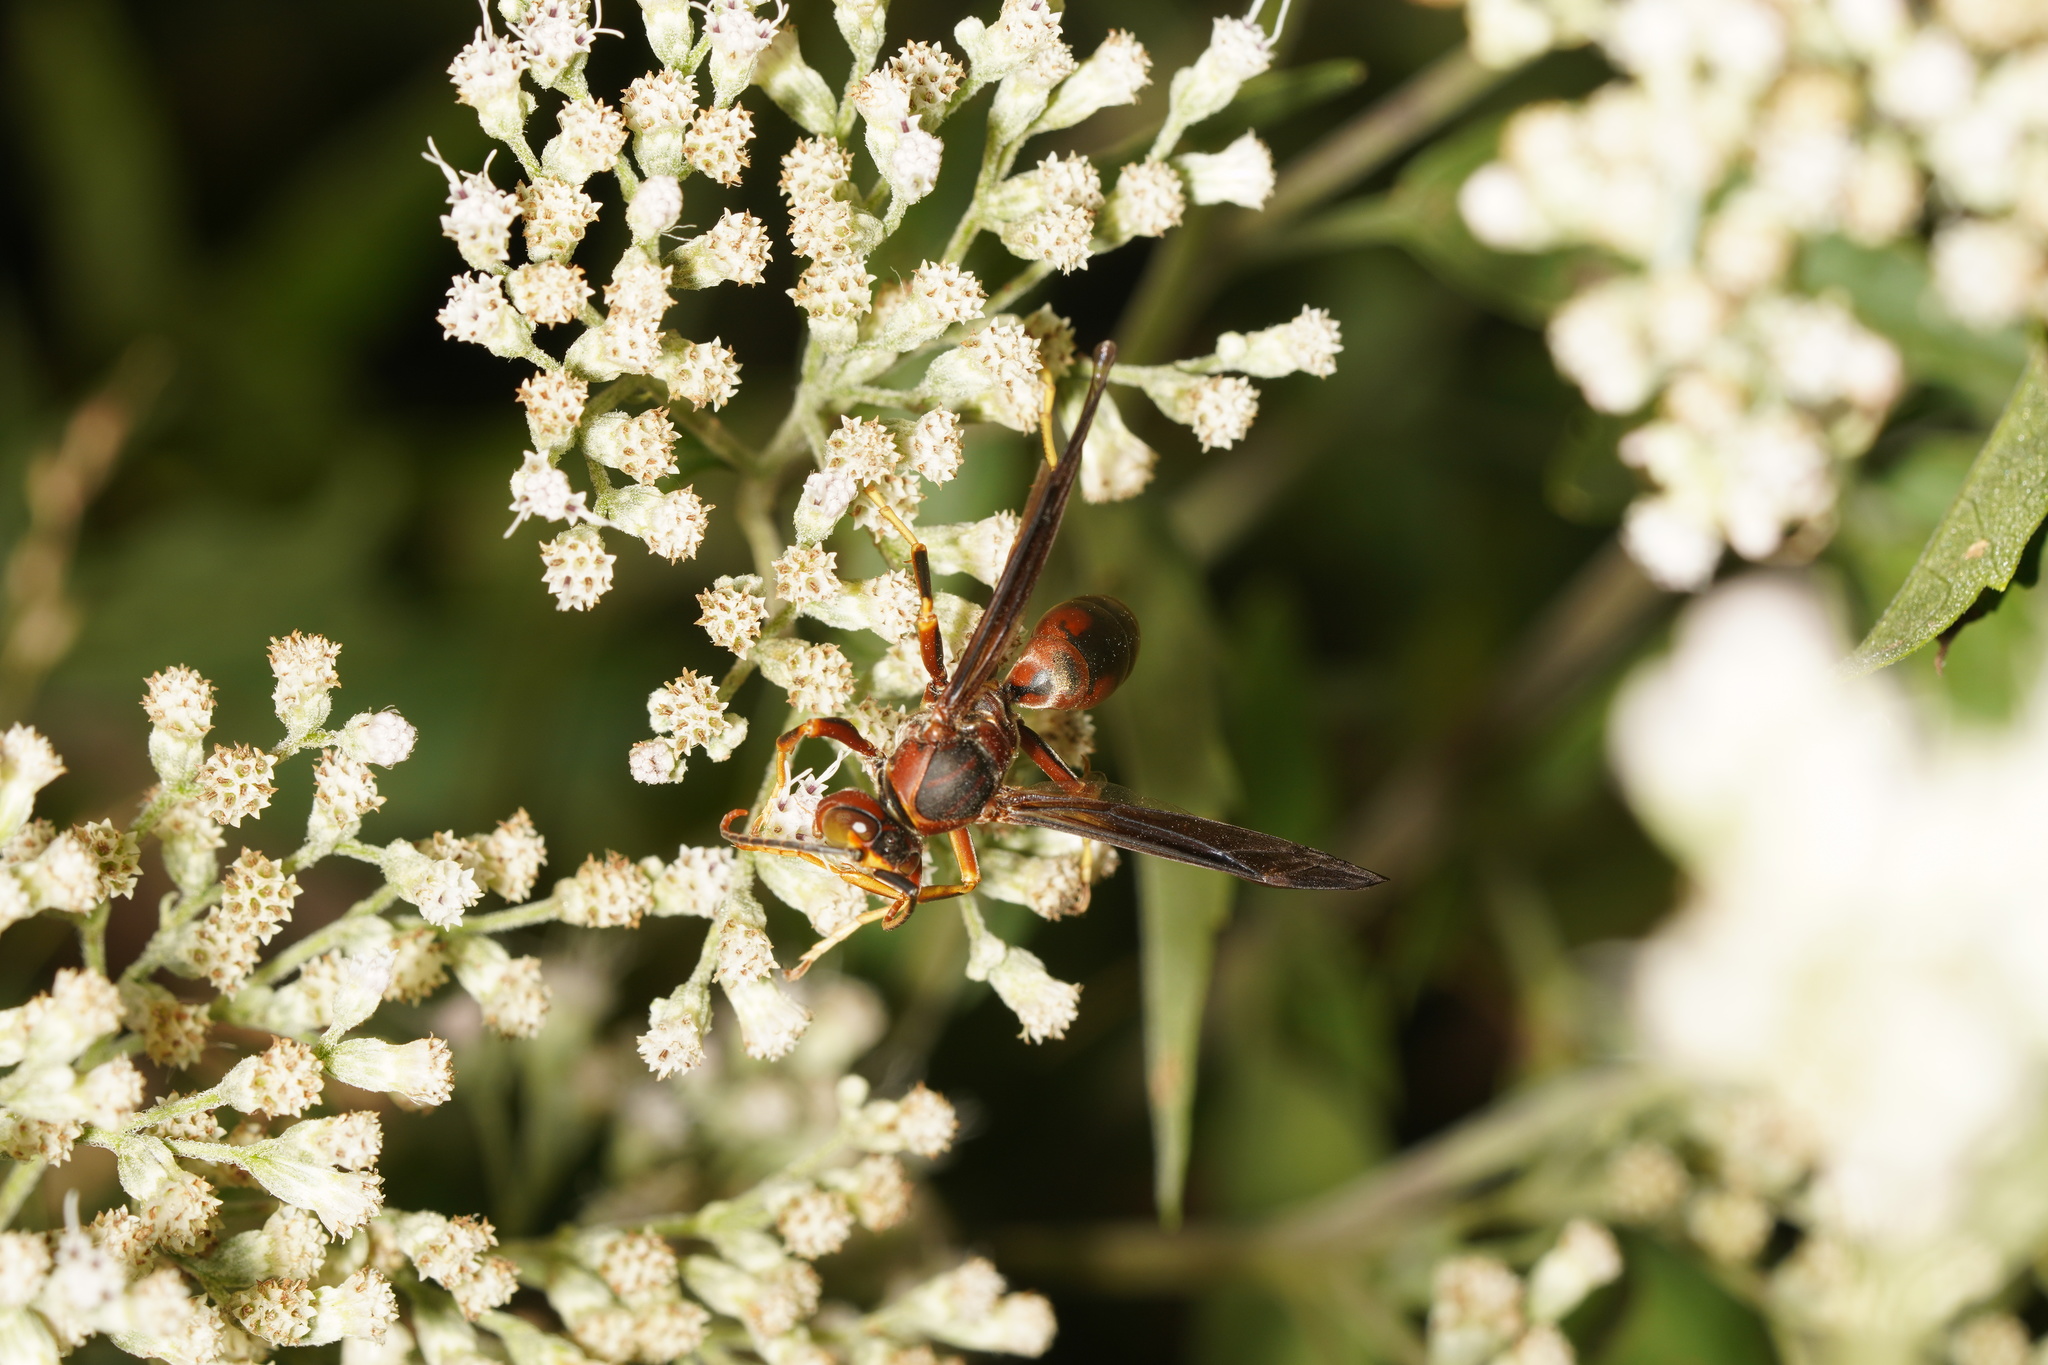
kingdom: Animalia
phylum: Arthropoda
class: Insecta
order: Hymenoptera
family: Eumenidae
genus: Polistes
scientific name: Polistes metricus
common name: Metric paper wasp
